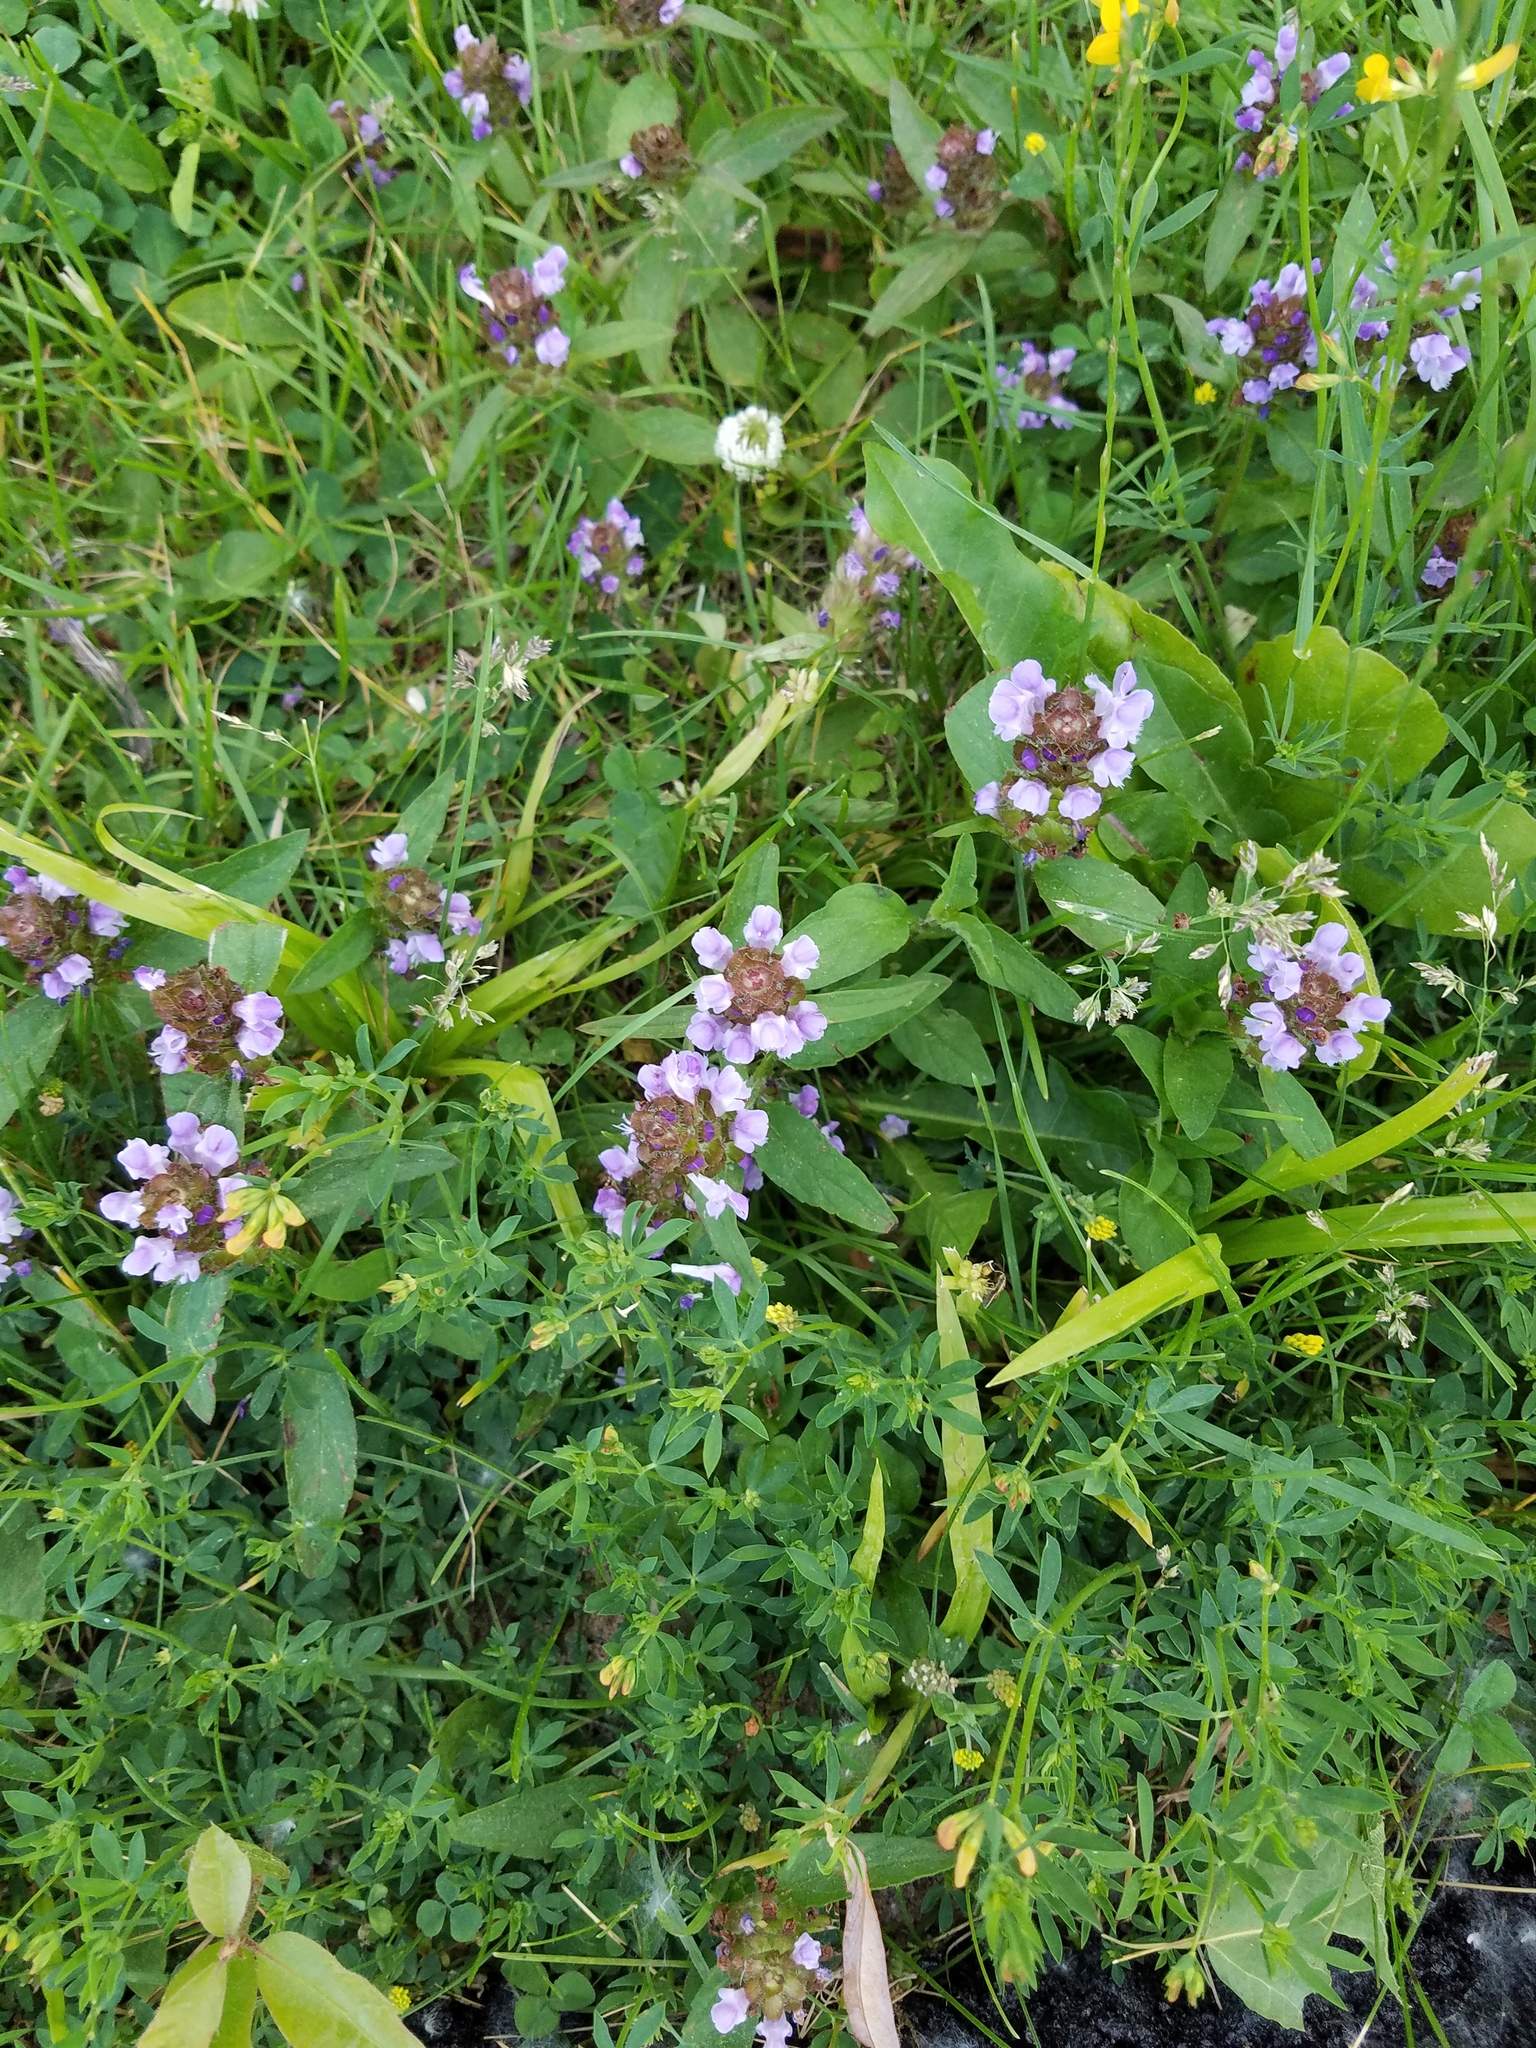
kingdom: Plantae
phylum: Tracheophyta
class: Magnoliopsida
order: Lamiales
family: Lamiaceae
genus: Prunella
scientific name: Prunella vulgaris
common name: Heal-all
